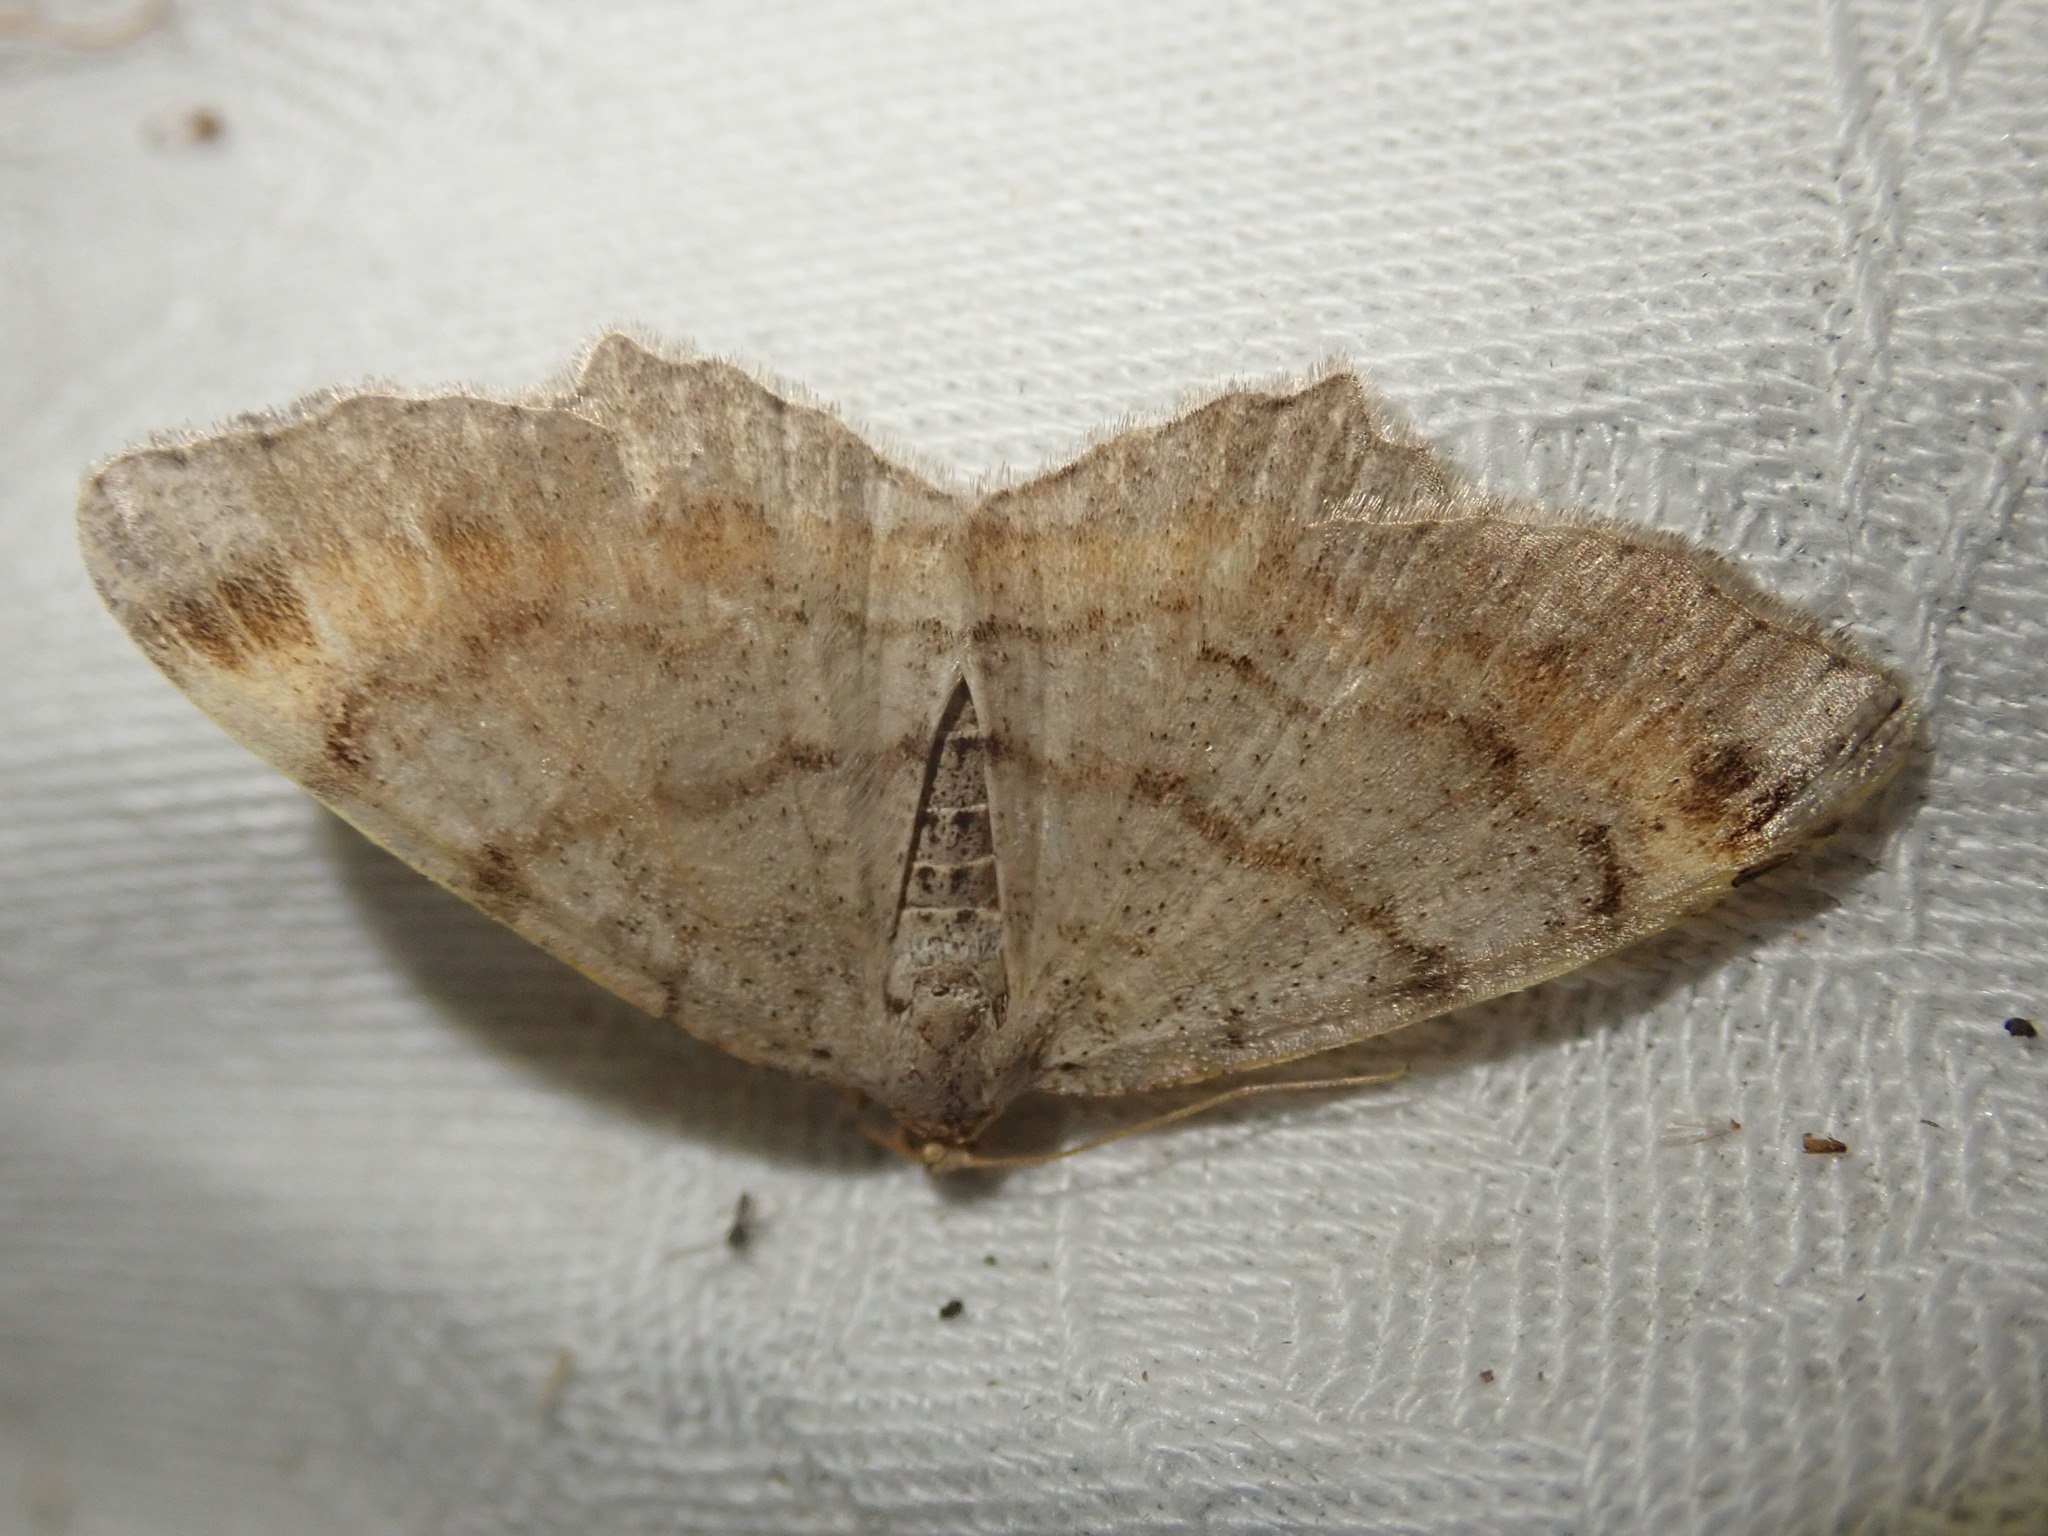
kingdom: Animalia
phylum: Arthropoda
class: Insecta
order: Lepidoptera
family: Geometridae
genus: Macaria
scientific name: Macaria liturata
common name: Tawny-barred angle
